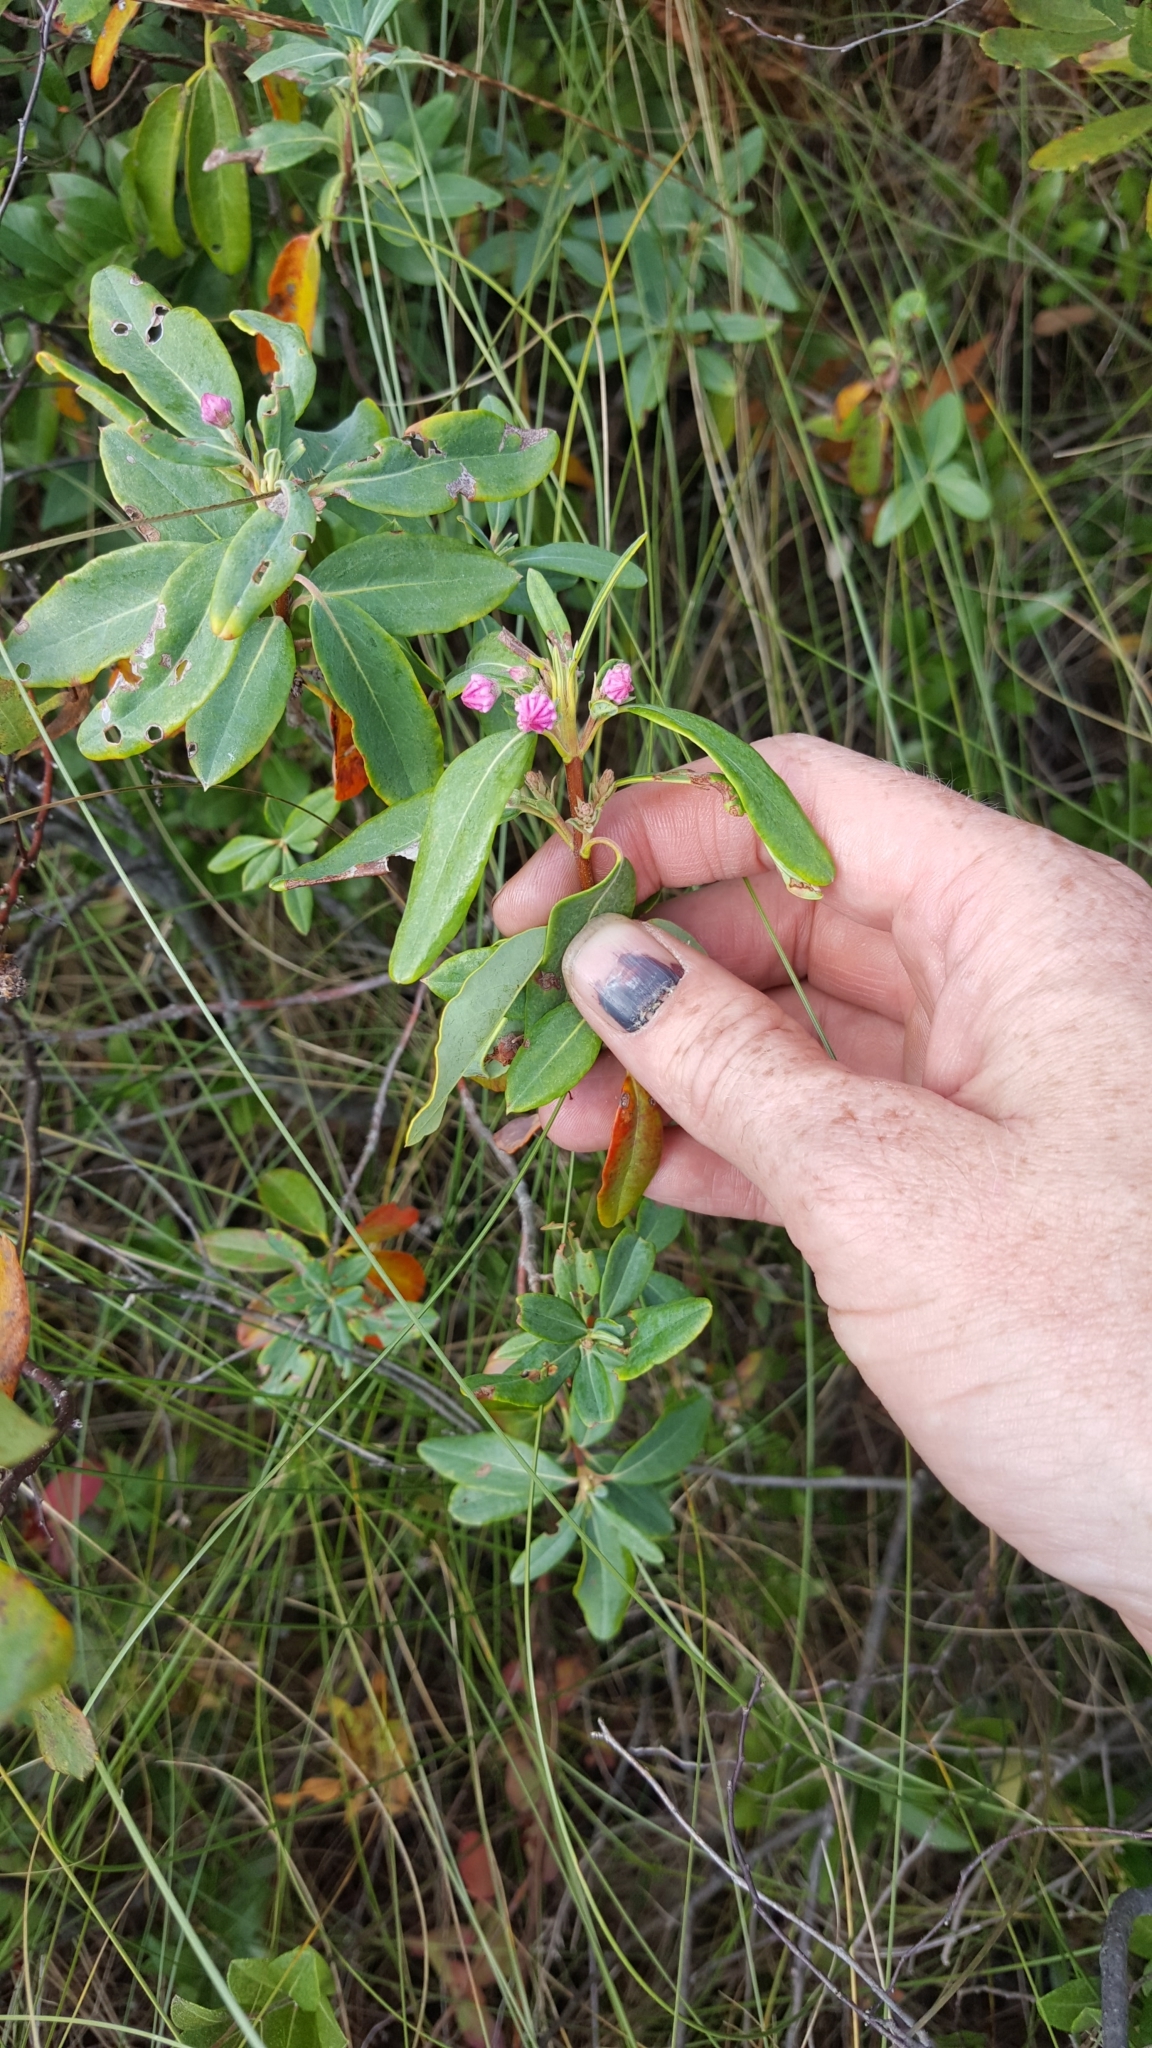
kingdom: Plantae
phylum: Tracheophyta
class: Magnoliopsida
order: Ericales
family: Ericaceae
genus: Kalmia
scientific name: Kalmia angustifolia
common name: Sheep-laurel
